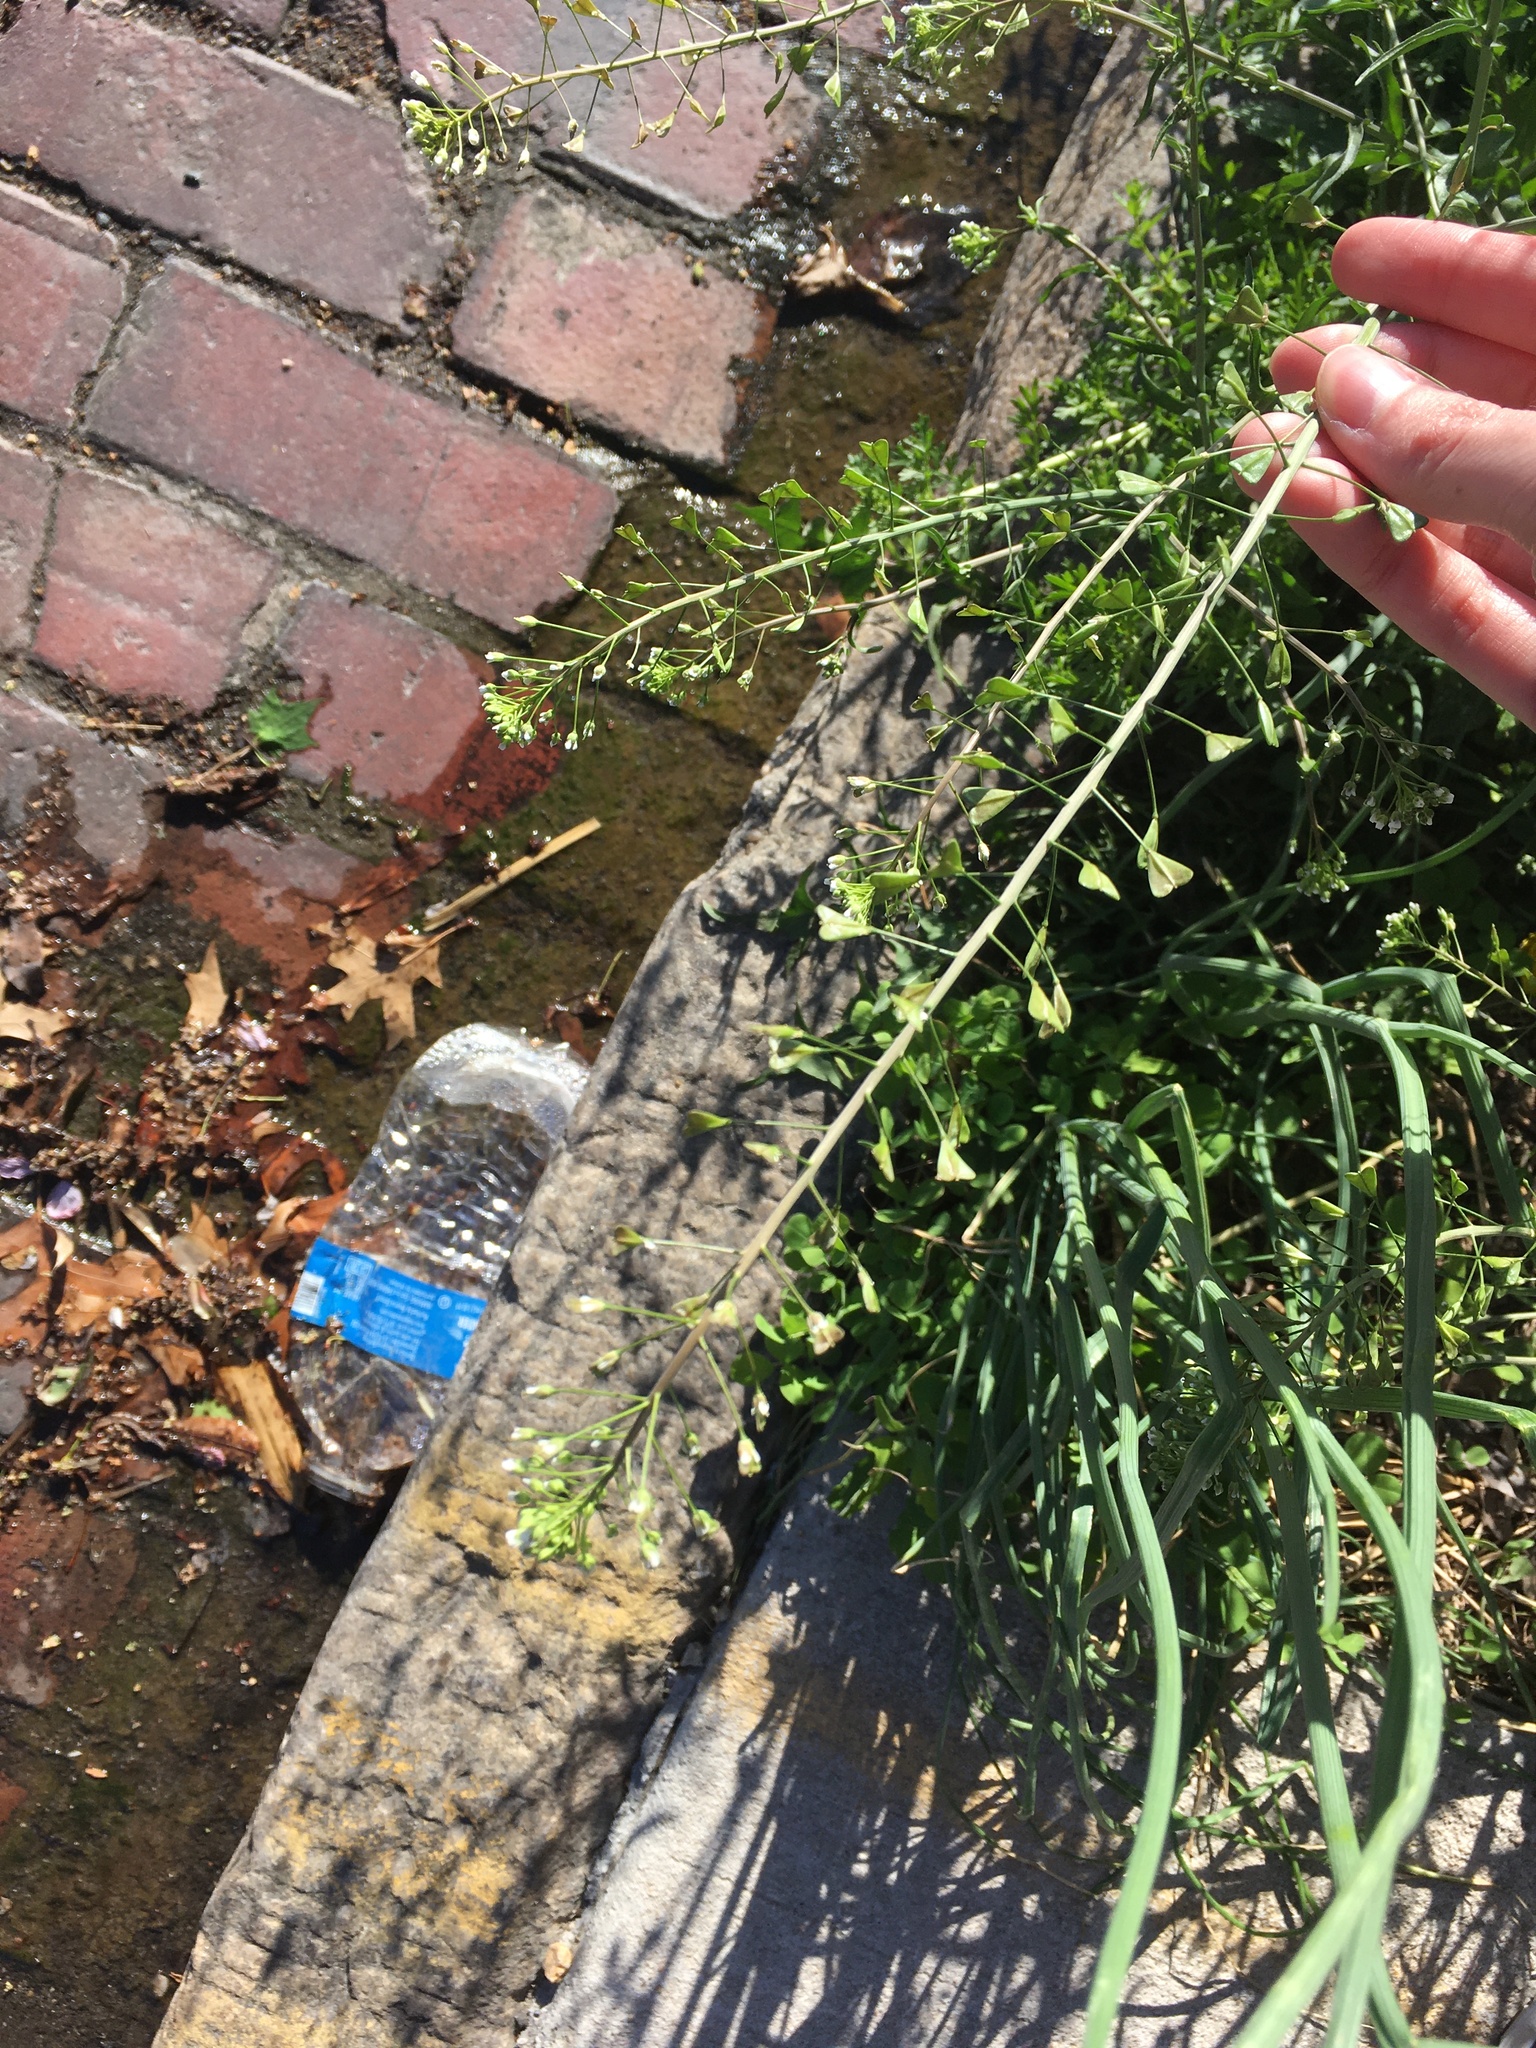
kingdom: Plantae
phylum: Tracheophyta
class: Magnoliopsida
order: Brassicales
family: Brassicaceae
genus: Capsella
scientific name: Capsella bursa-pastoris
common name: Shepherd's purse
